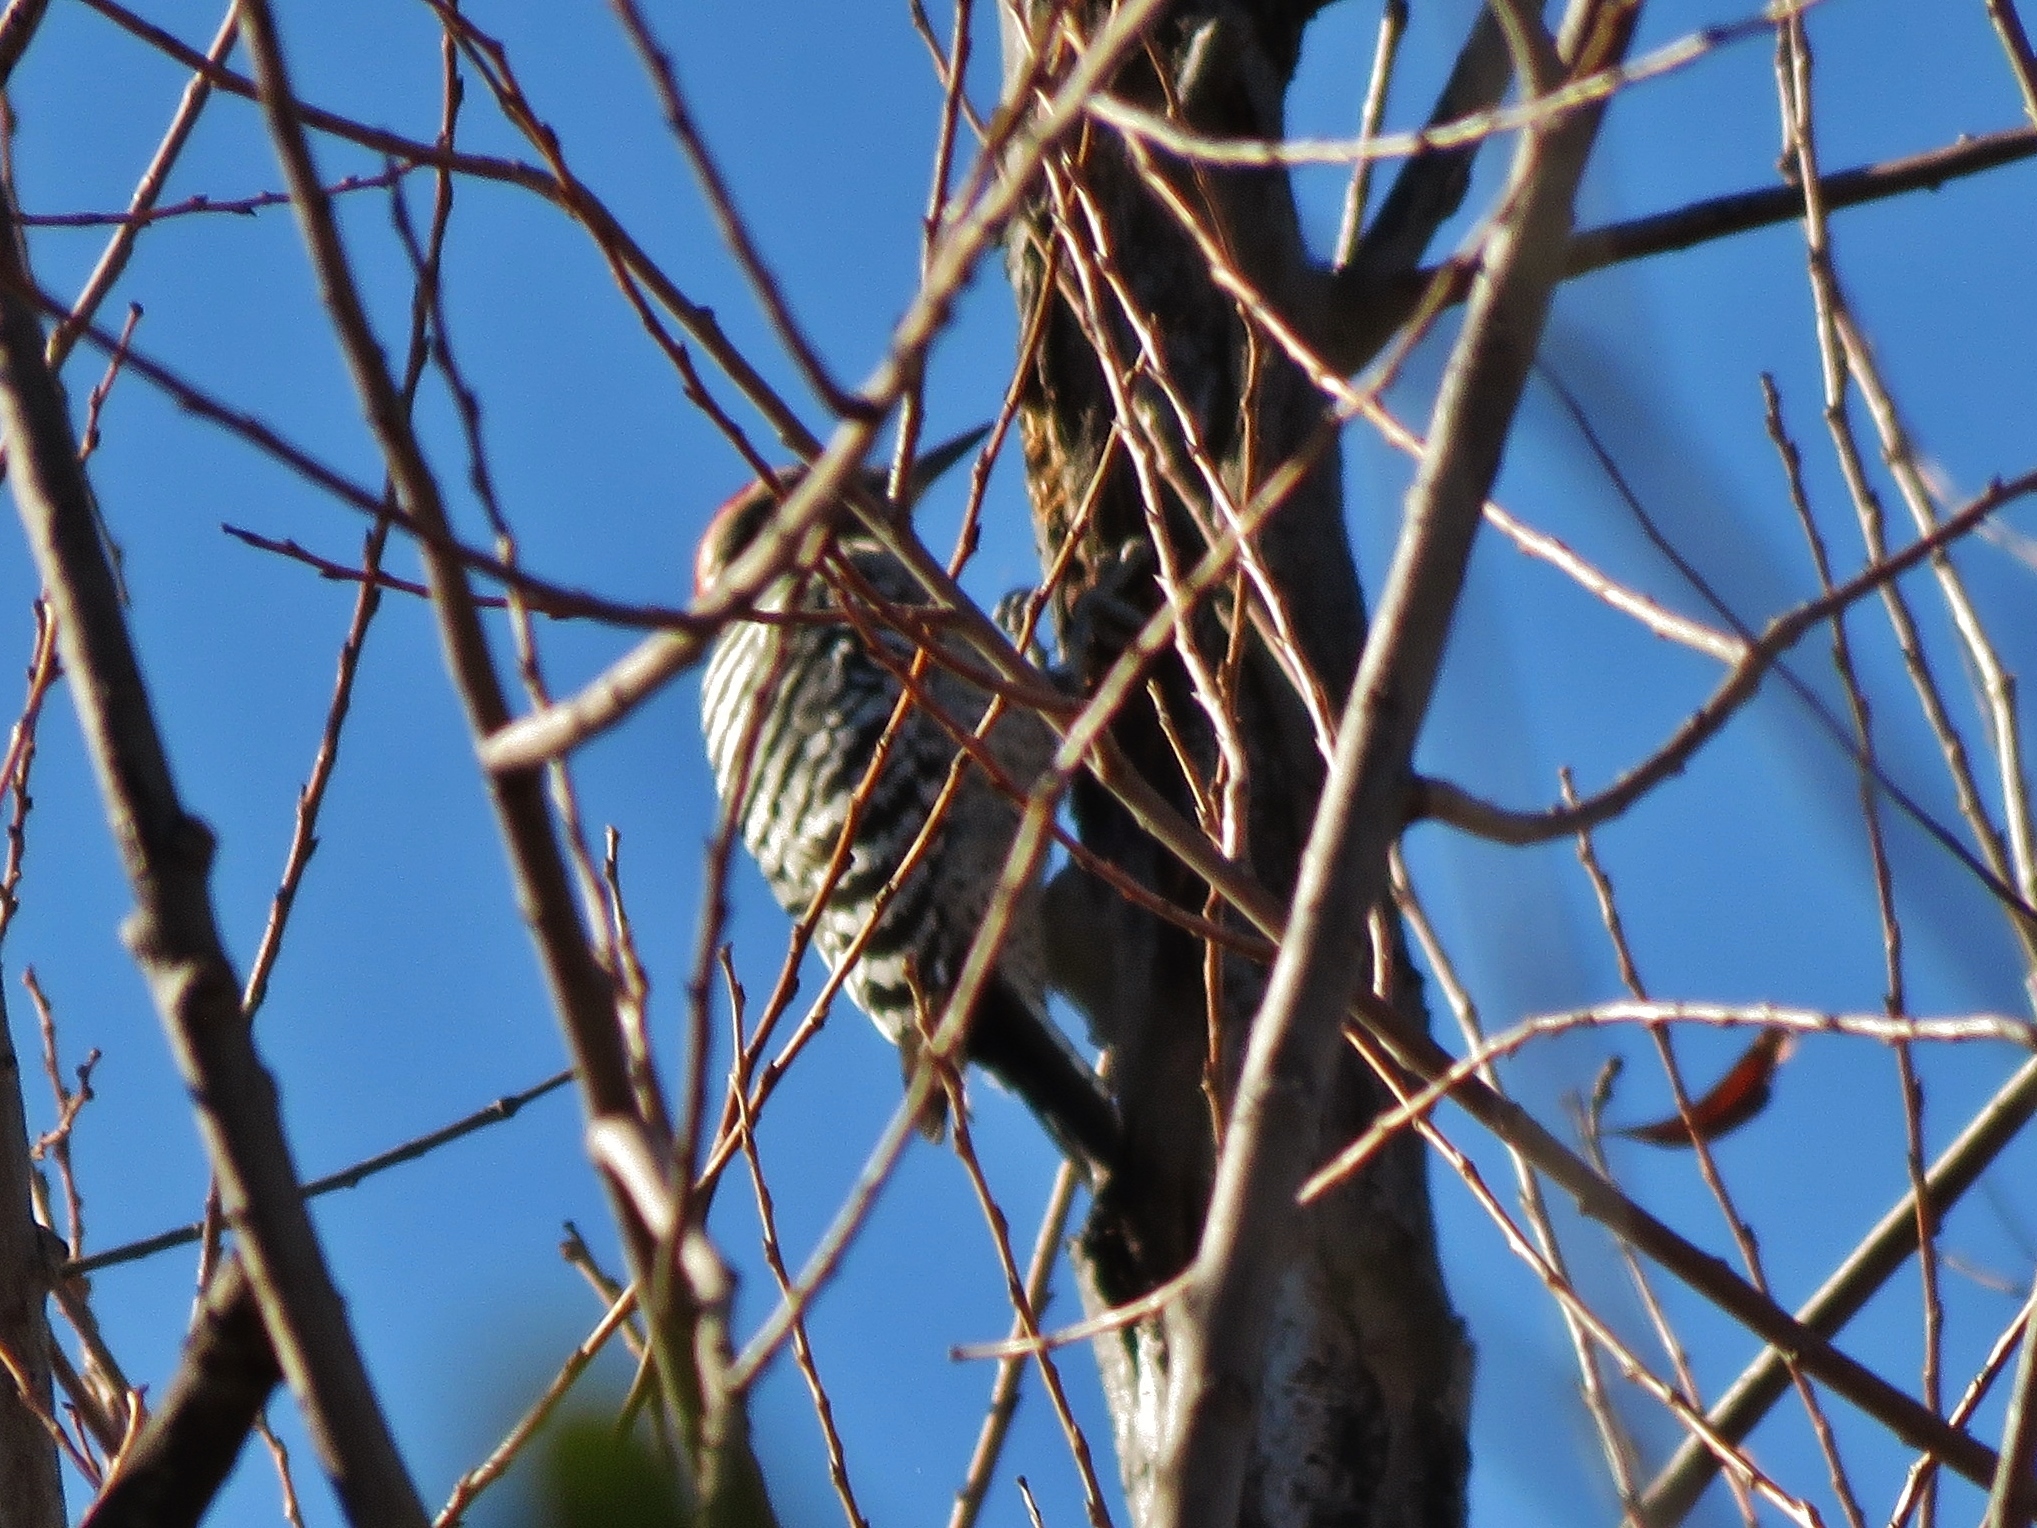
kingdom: Animalia
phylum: Chordata
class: Aves
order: Piciformes
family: Picidae
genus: Dryobates
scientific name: Dryobates scalaris
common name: Ladder-backed woodpecker
